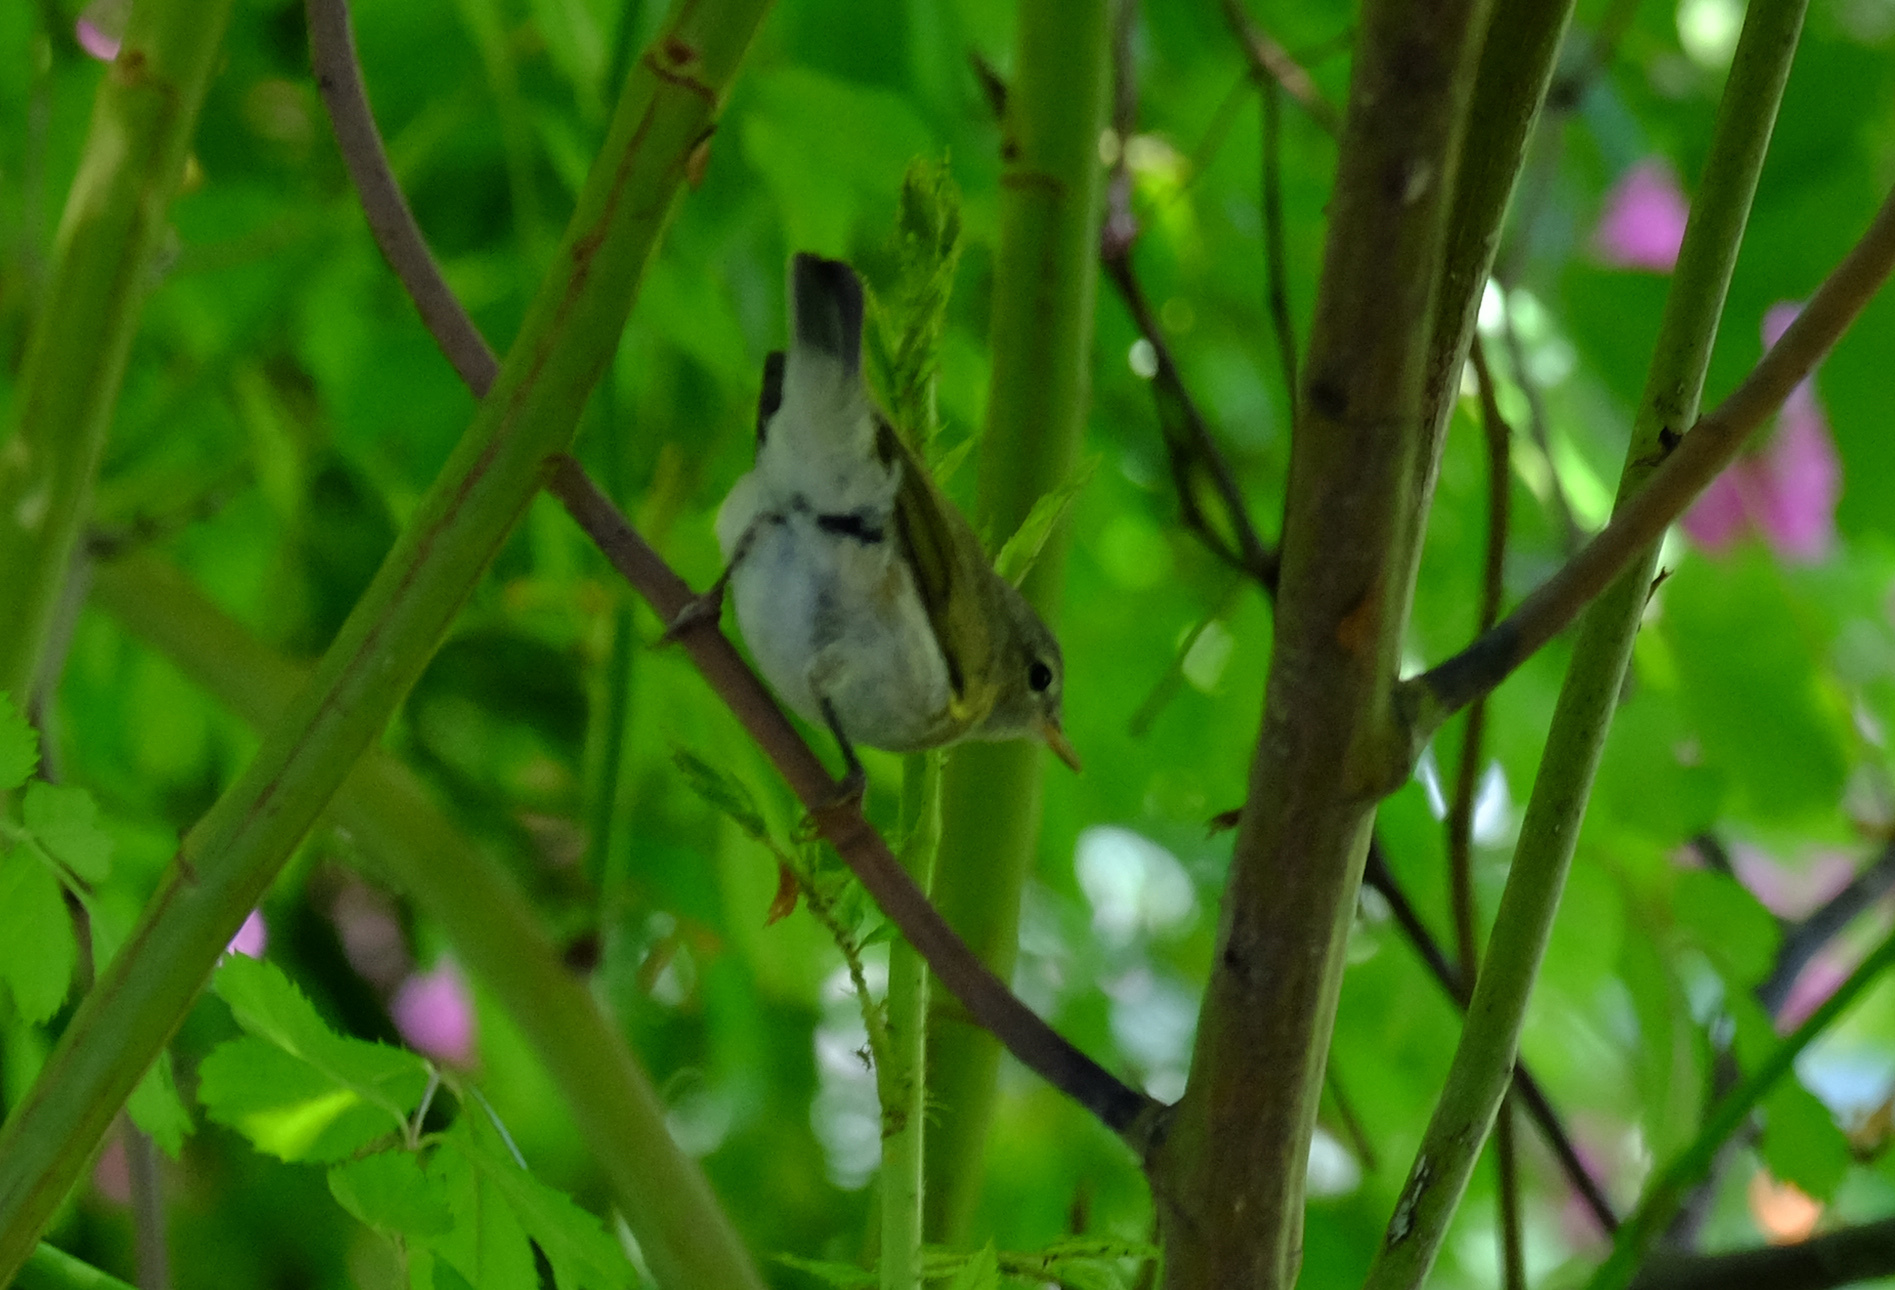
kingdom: Animalia
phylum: Chordata
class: Aves
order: Passeriformes
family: Phylloscopidae
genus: Phylloscopus
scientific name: Phylloscopus trochilus
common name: Willow warbler
